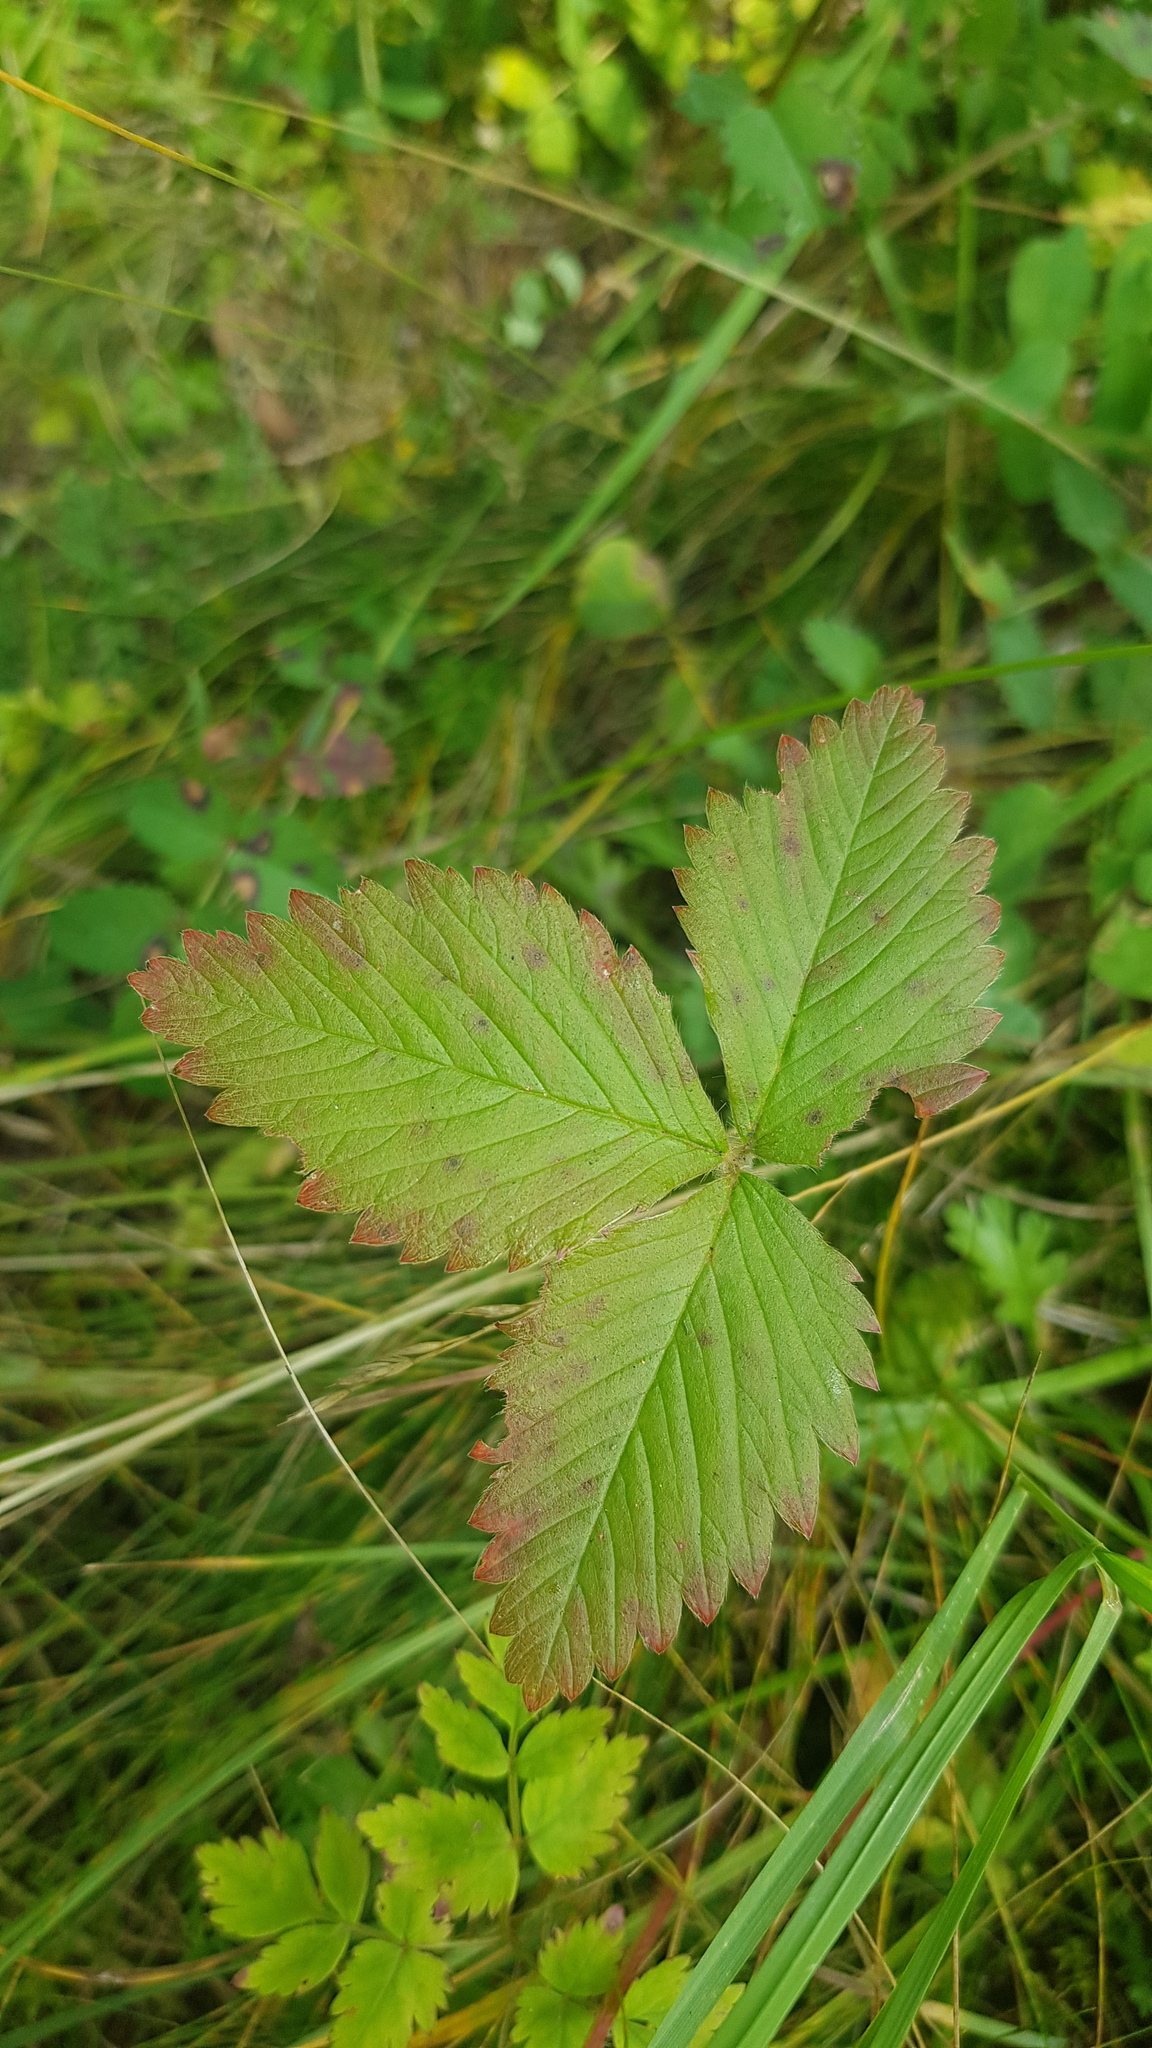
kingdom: Plantae
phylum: Tracheophyta
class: Magnoliopsida
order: Rosales
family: Rosaceae
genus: Fragaria
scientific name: Fragaria orientalis
